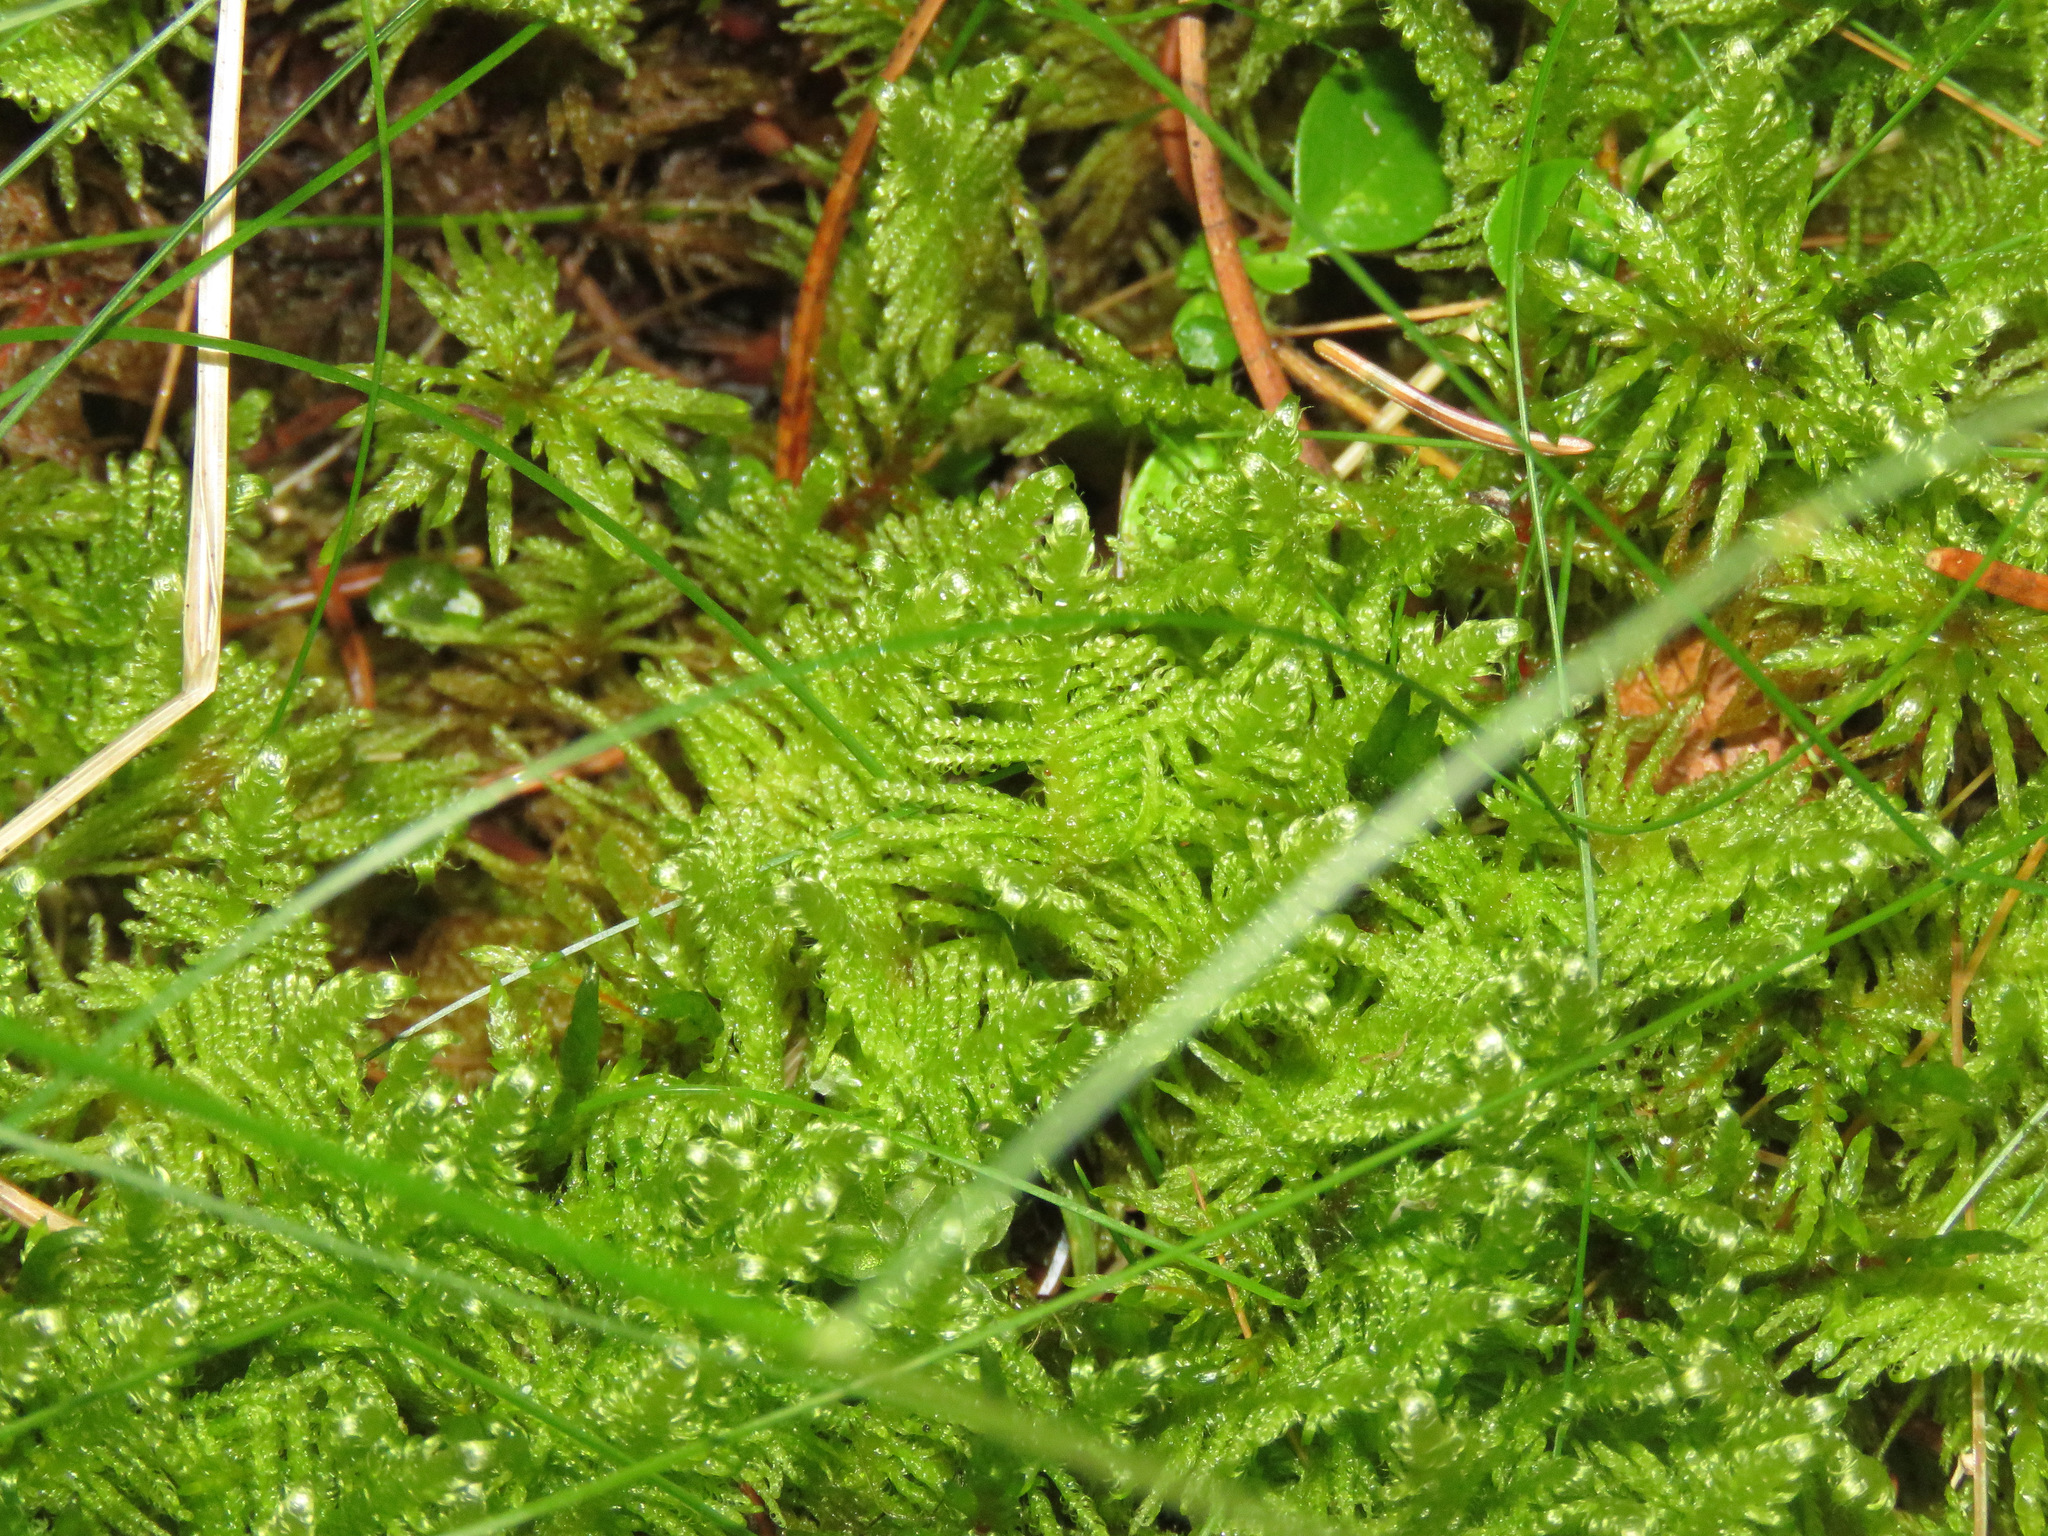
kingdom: Plantae
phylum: Bryophyta
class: Bryopsida
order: Hypnales
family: Pylaisiaceae
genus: Ptilium
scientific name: Ptilium crista-castrensis
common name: Knight's plume moss
